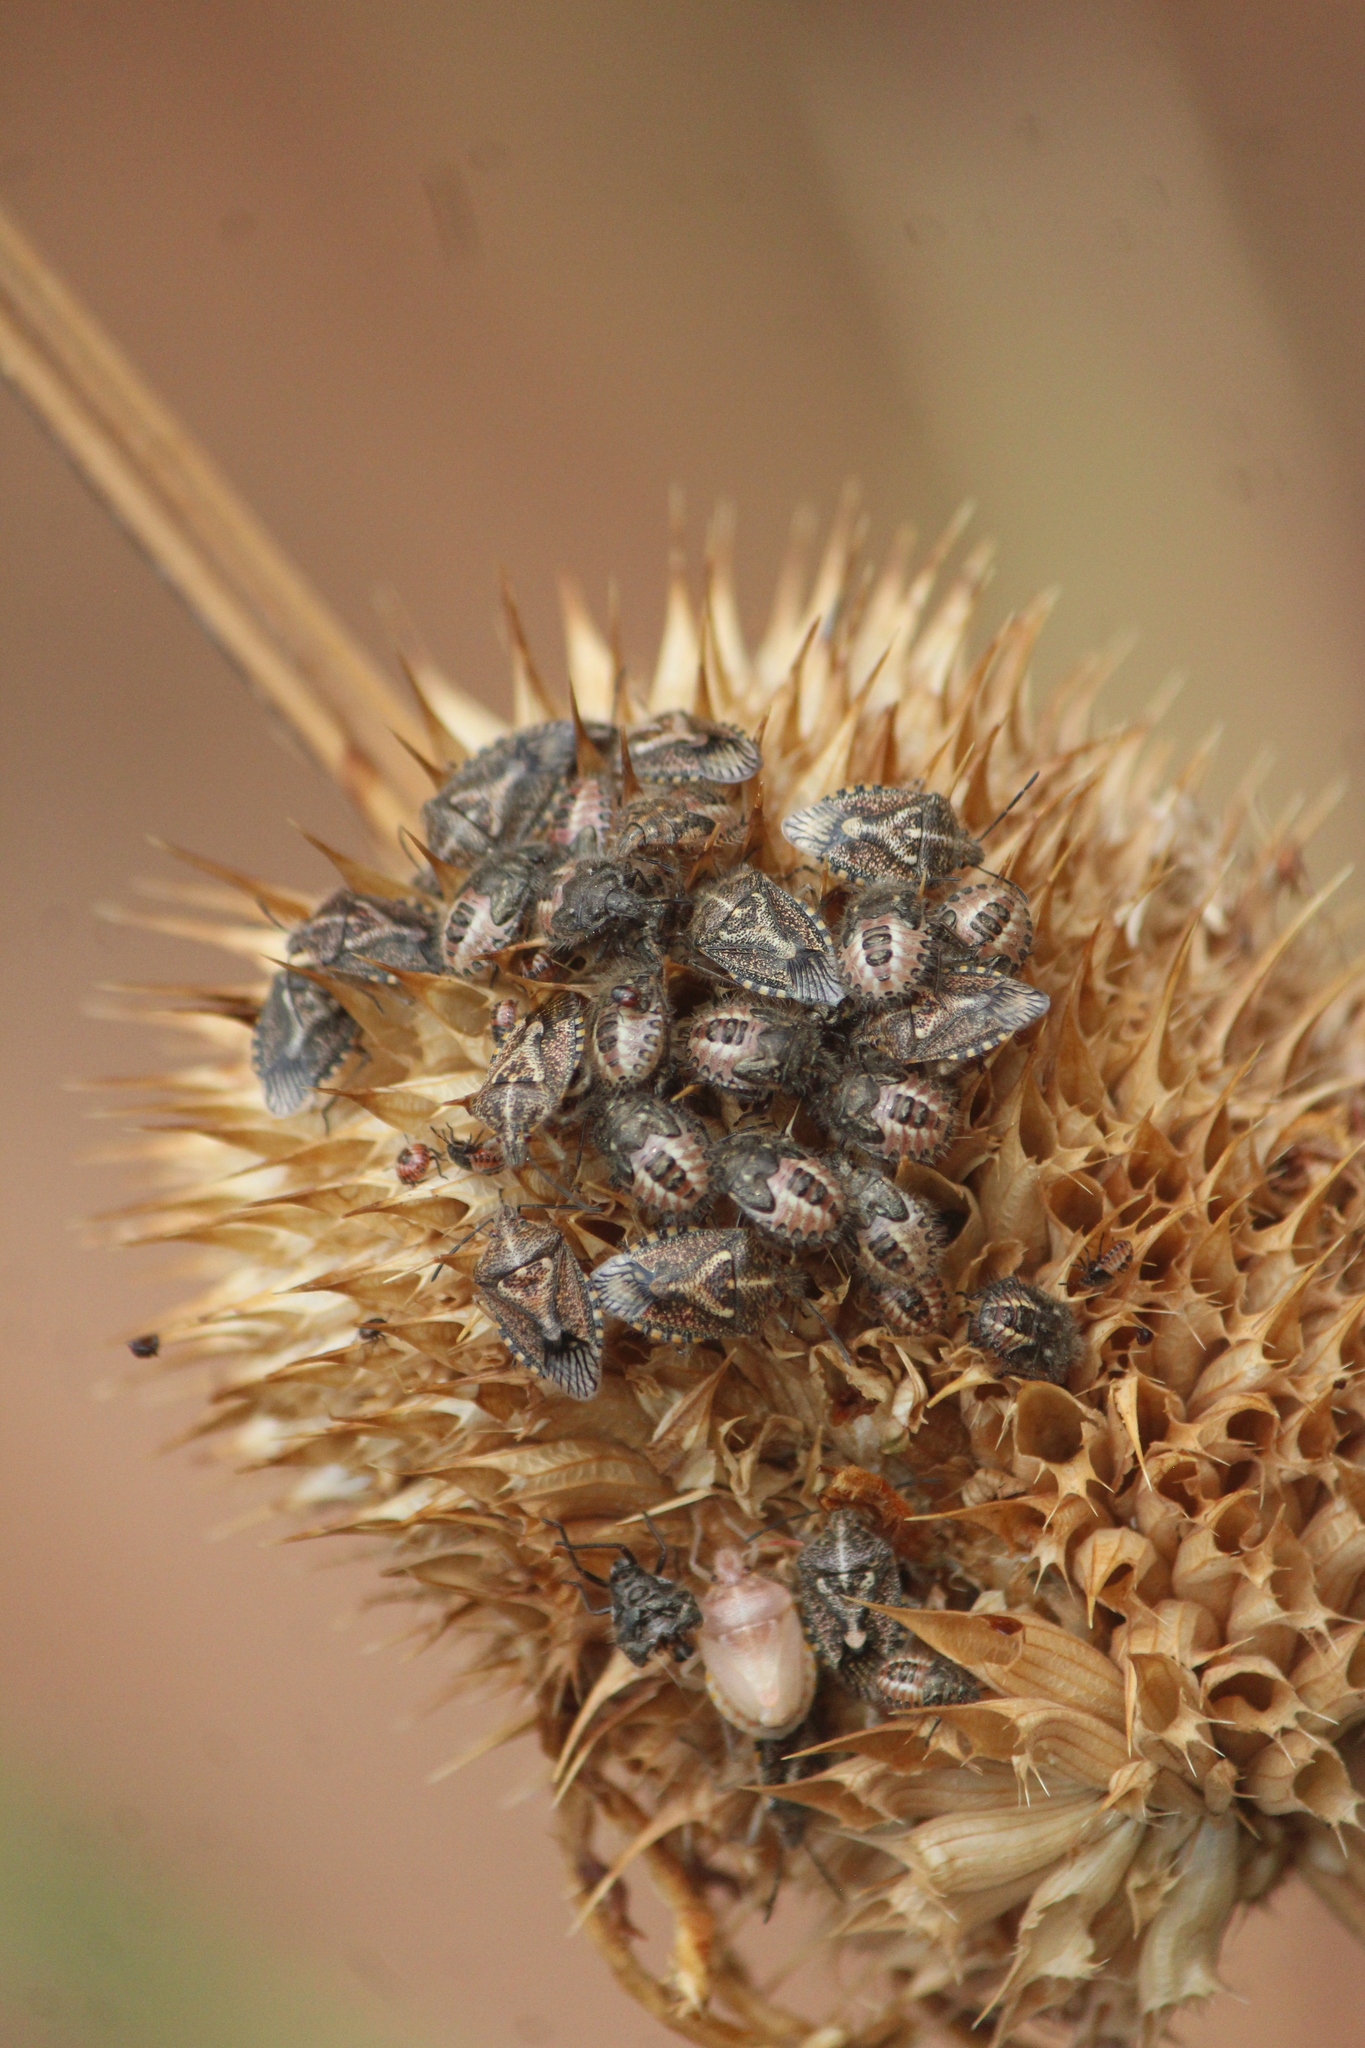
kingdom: Animalia
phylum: Arthropoda
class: Insecta
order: Hemiptera
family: Pentatomidae
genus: Agonoscelis
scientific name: Agonoscelis puberula
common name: African cluster bug
